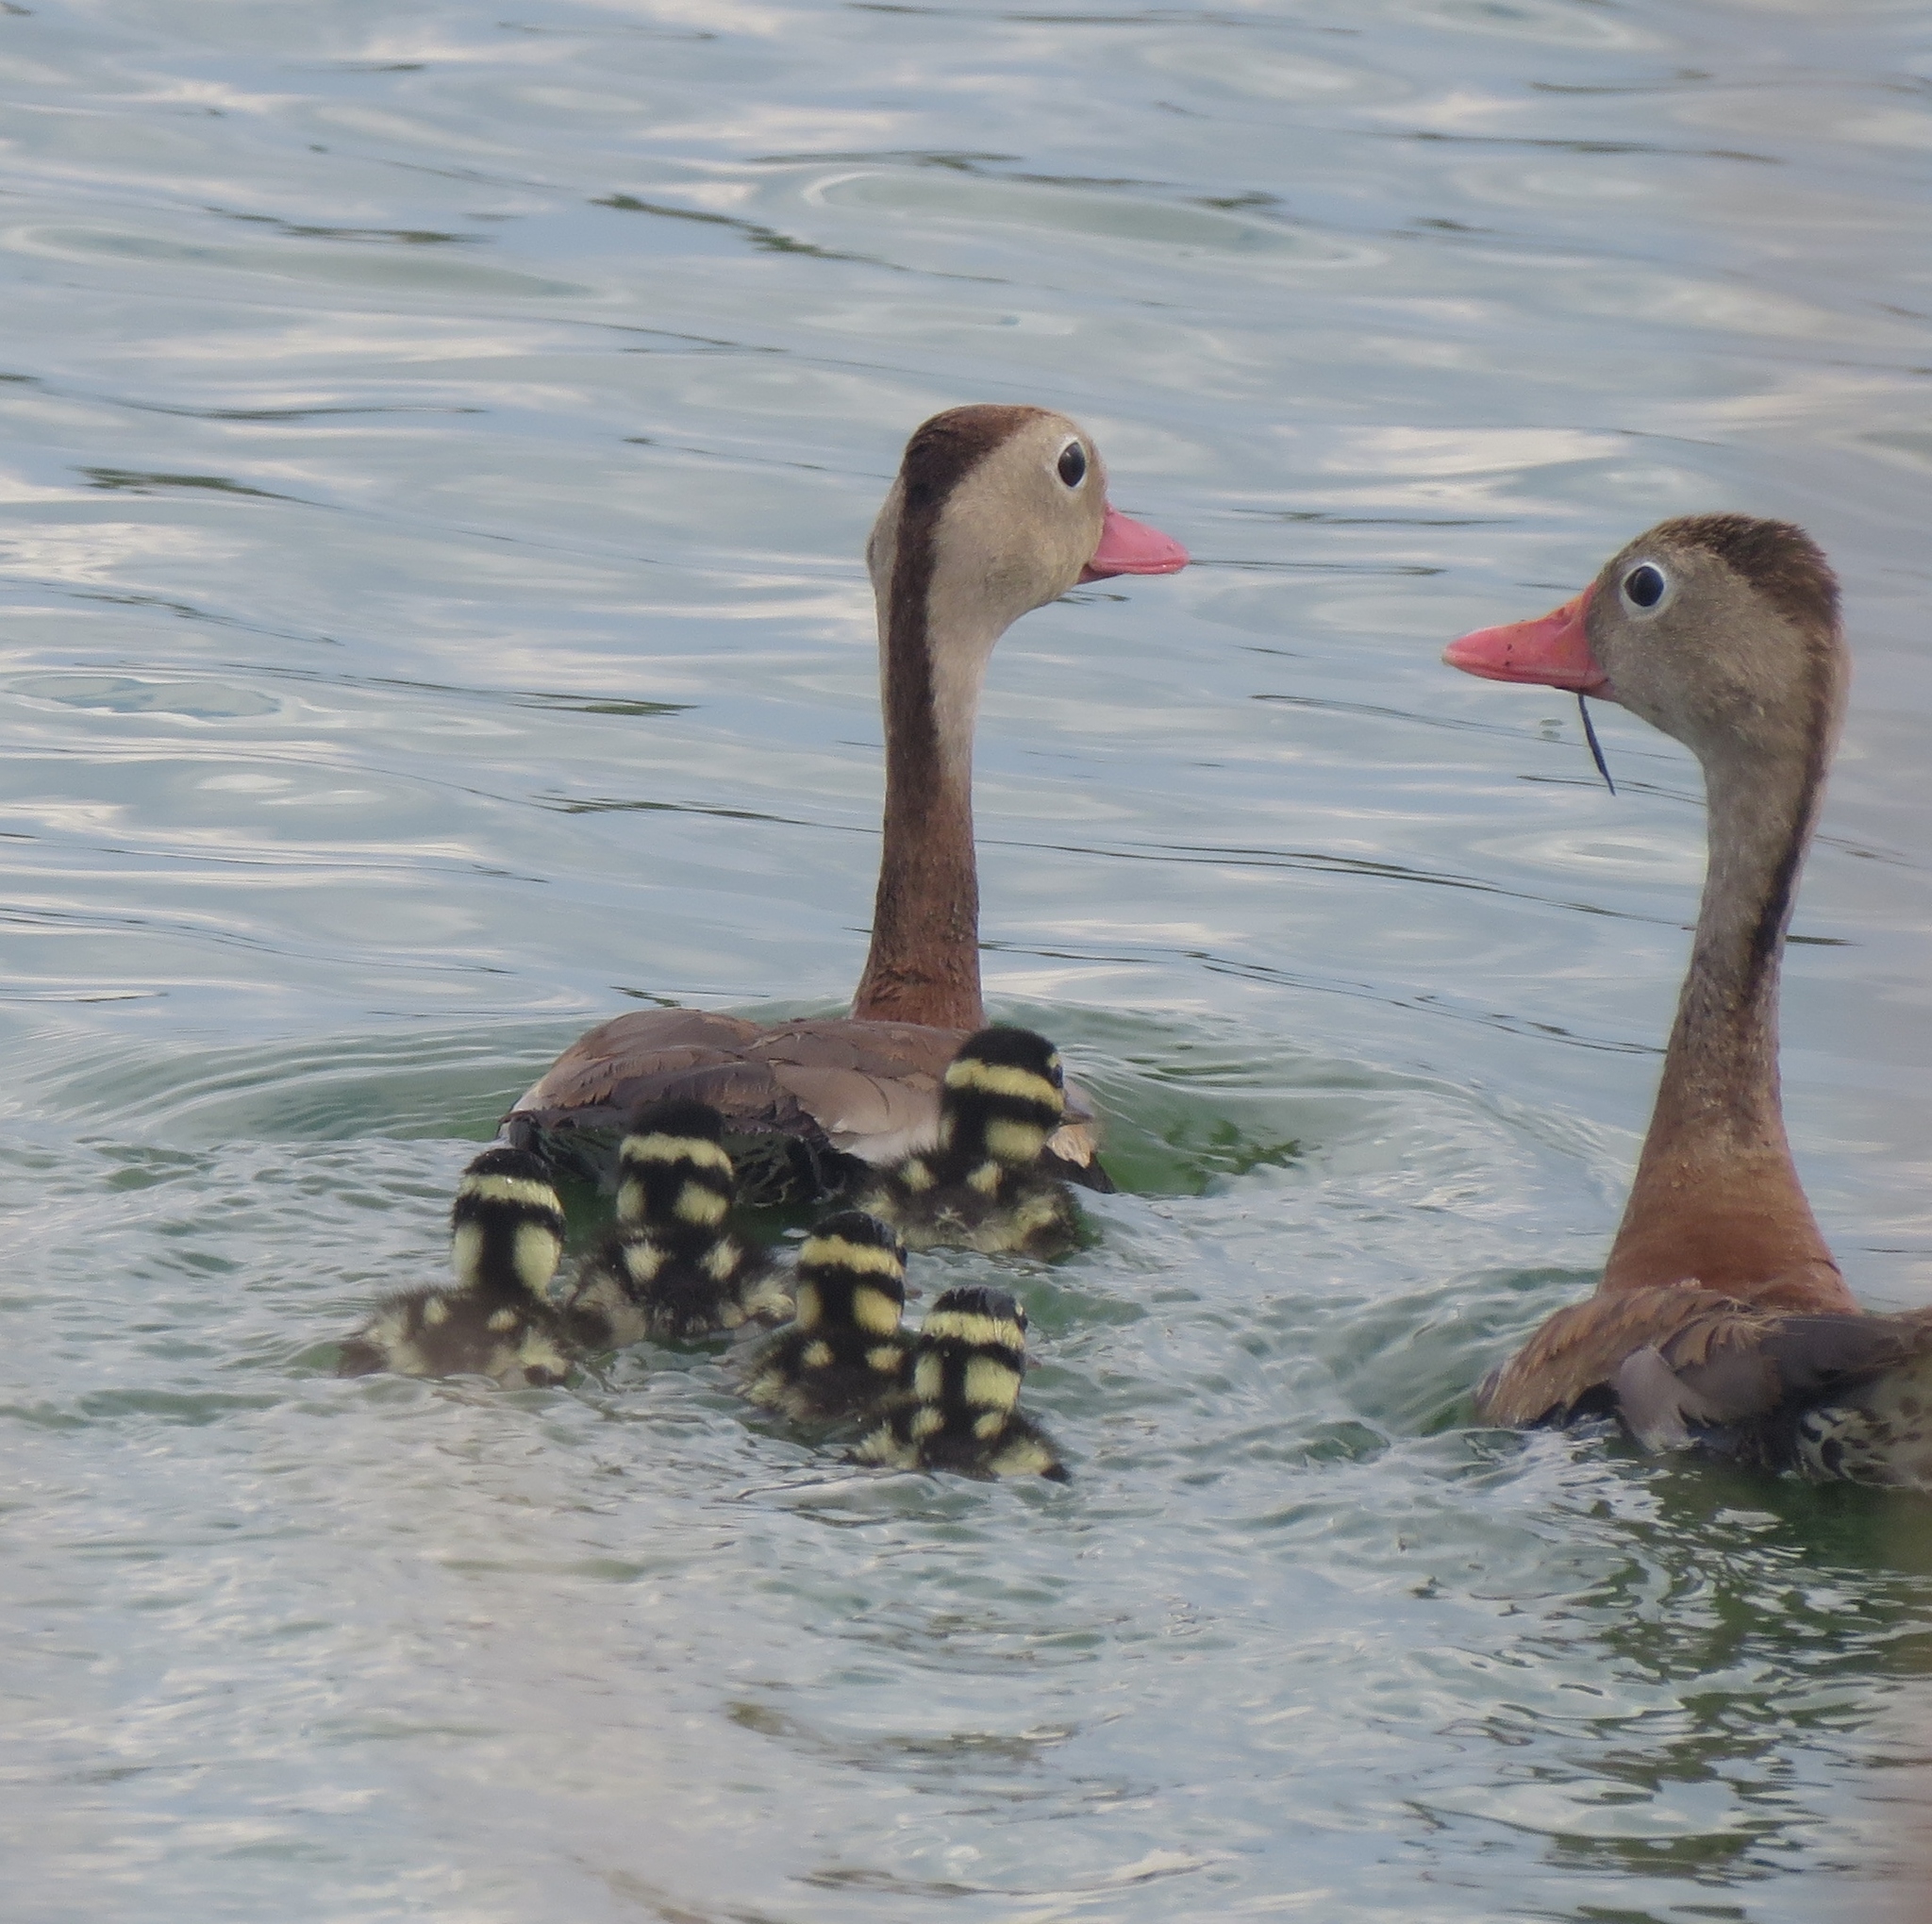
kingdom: Animalia
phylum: Chordata
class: Aves
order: Anseriformes
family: Anatidae
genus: Dendrocygna
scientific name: Dendrocygna autumnalis
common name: Black-bellied whistling duck
